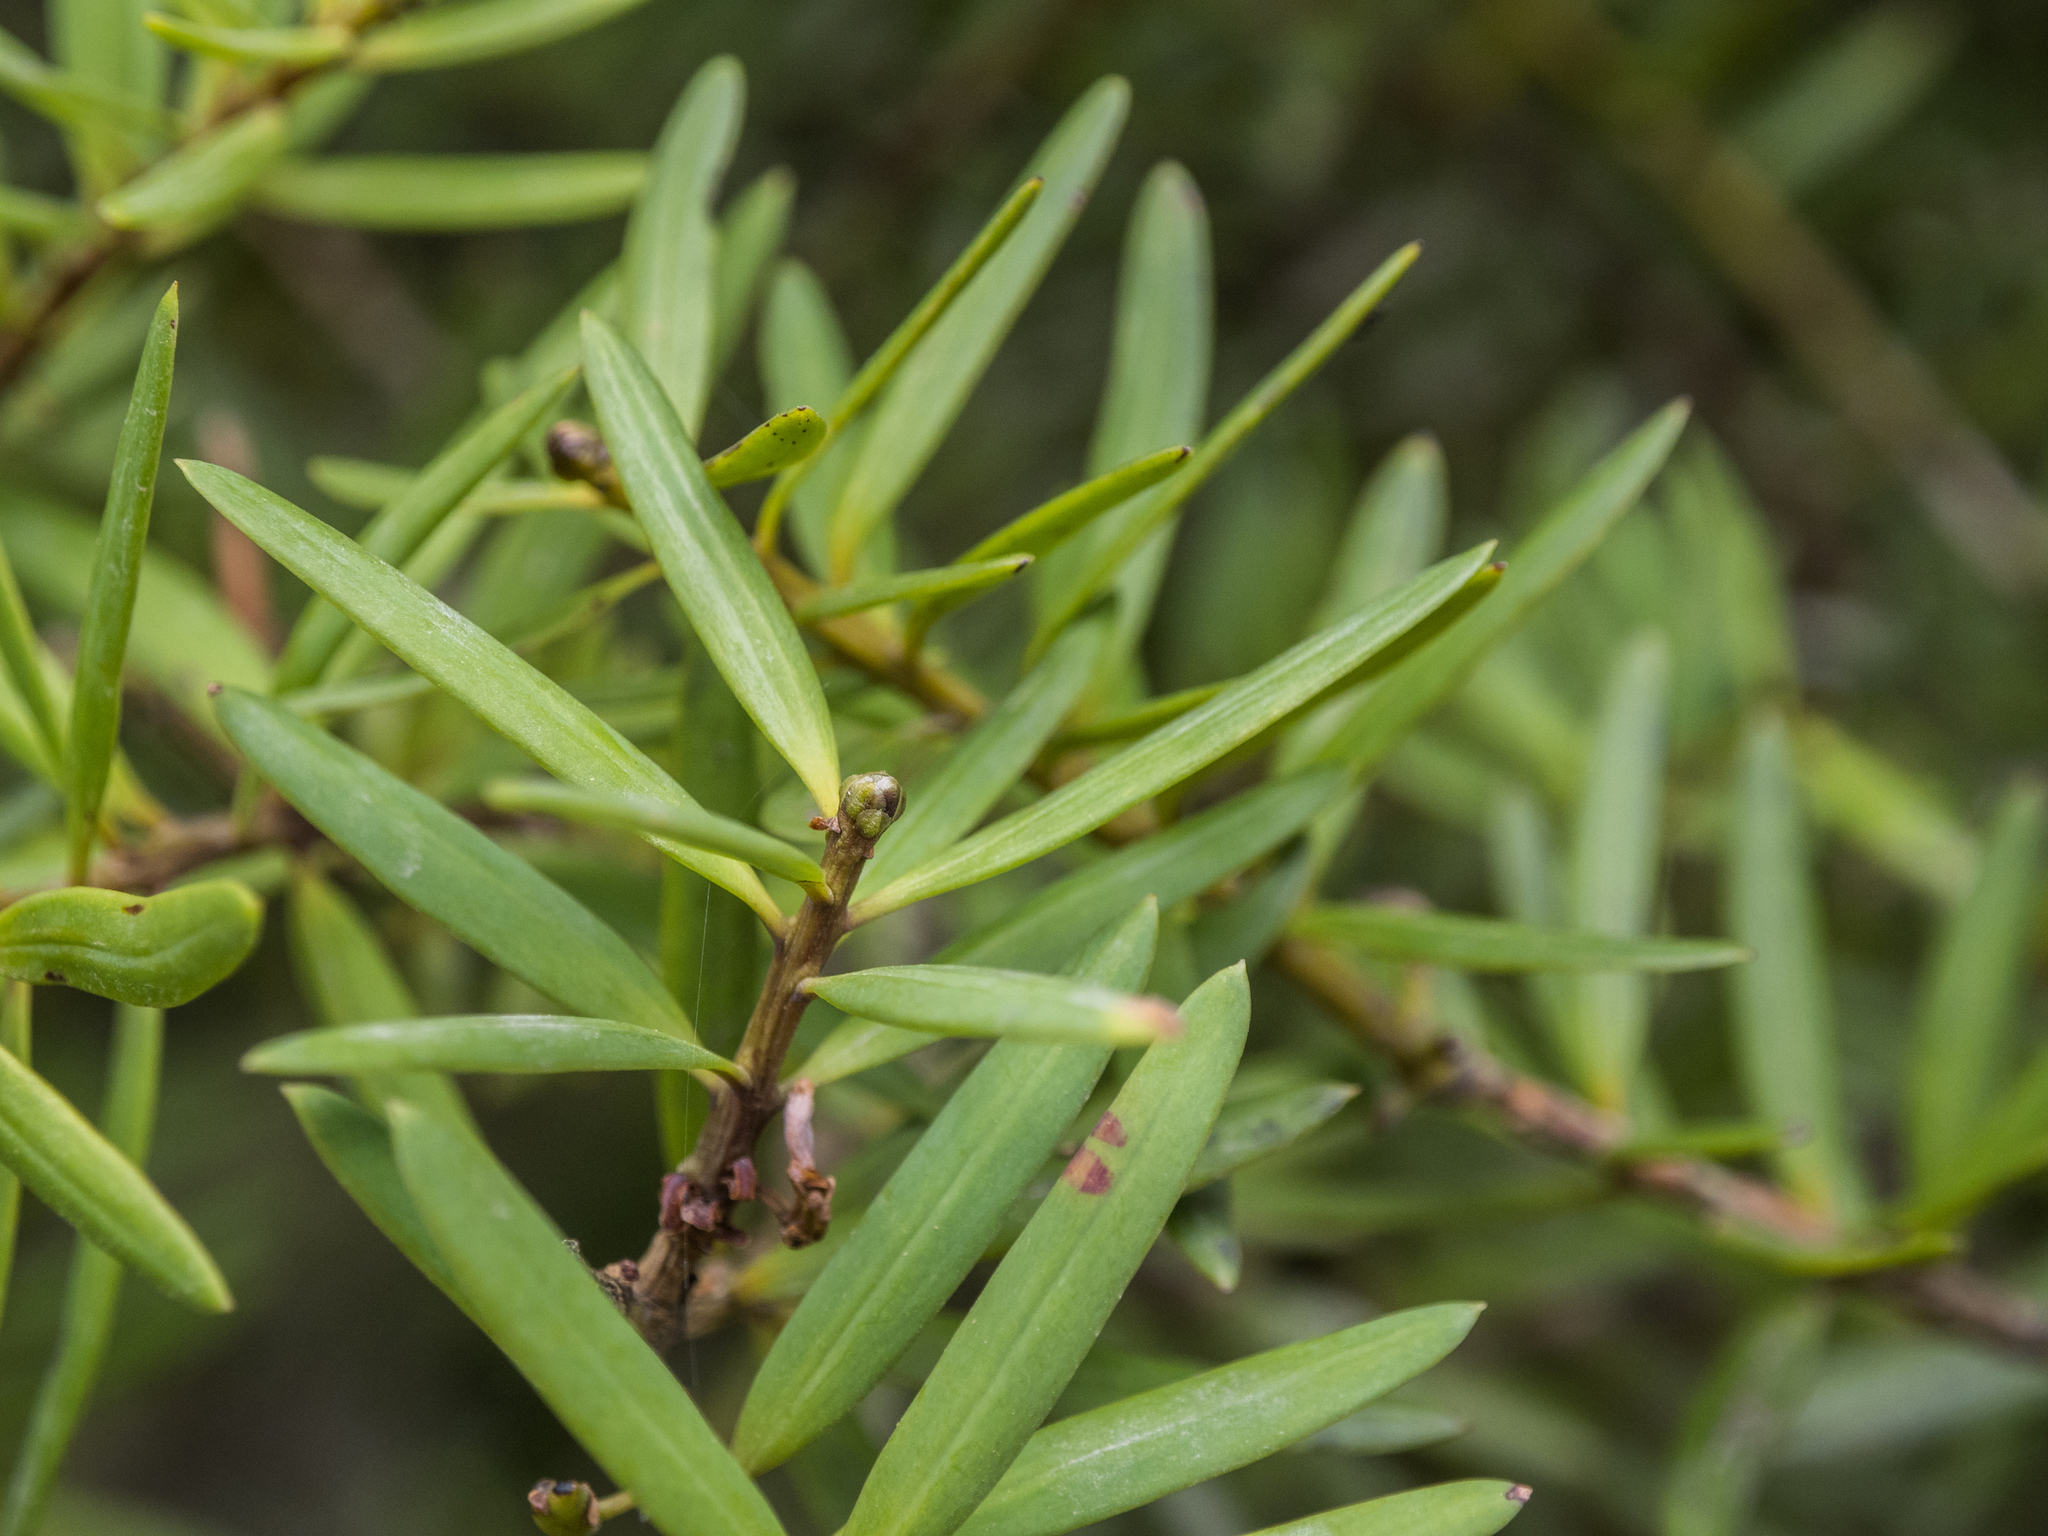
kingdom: Plantae
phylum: Tracheophyta
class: Pinopsida
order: Pinales
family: Podocarpaceae
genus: Podocarpus
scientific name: Podocarpus laetus
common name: Hall's totara
